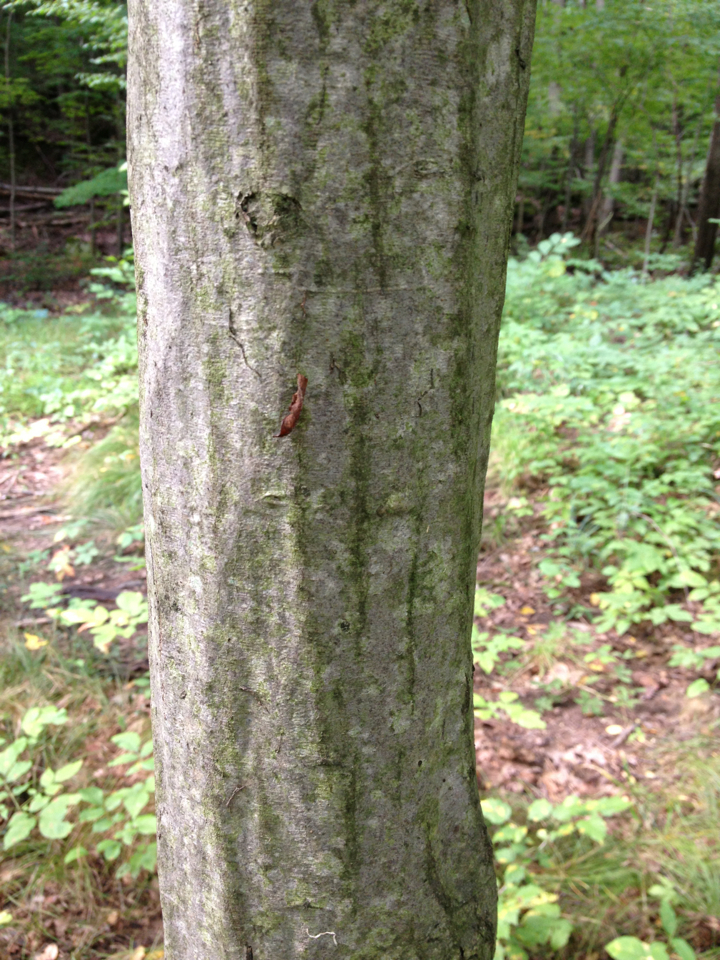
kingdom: Plantae
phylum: Tracheophyta
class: Magnoliopsida
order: Fagales
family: Betulaceae
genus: Carpinus
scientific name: Carpinus caroliniana
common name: American hornbeam
